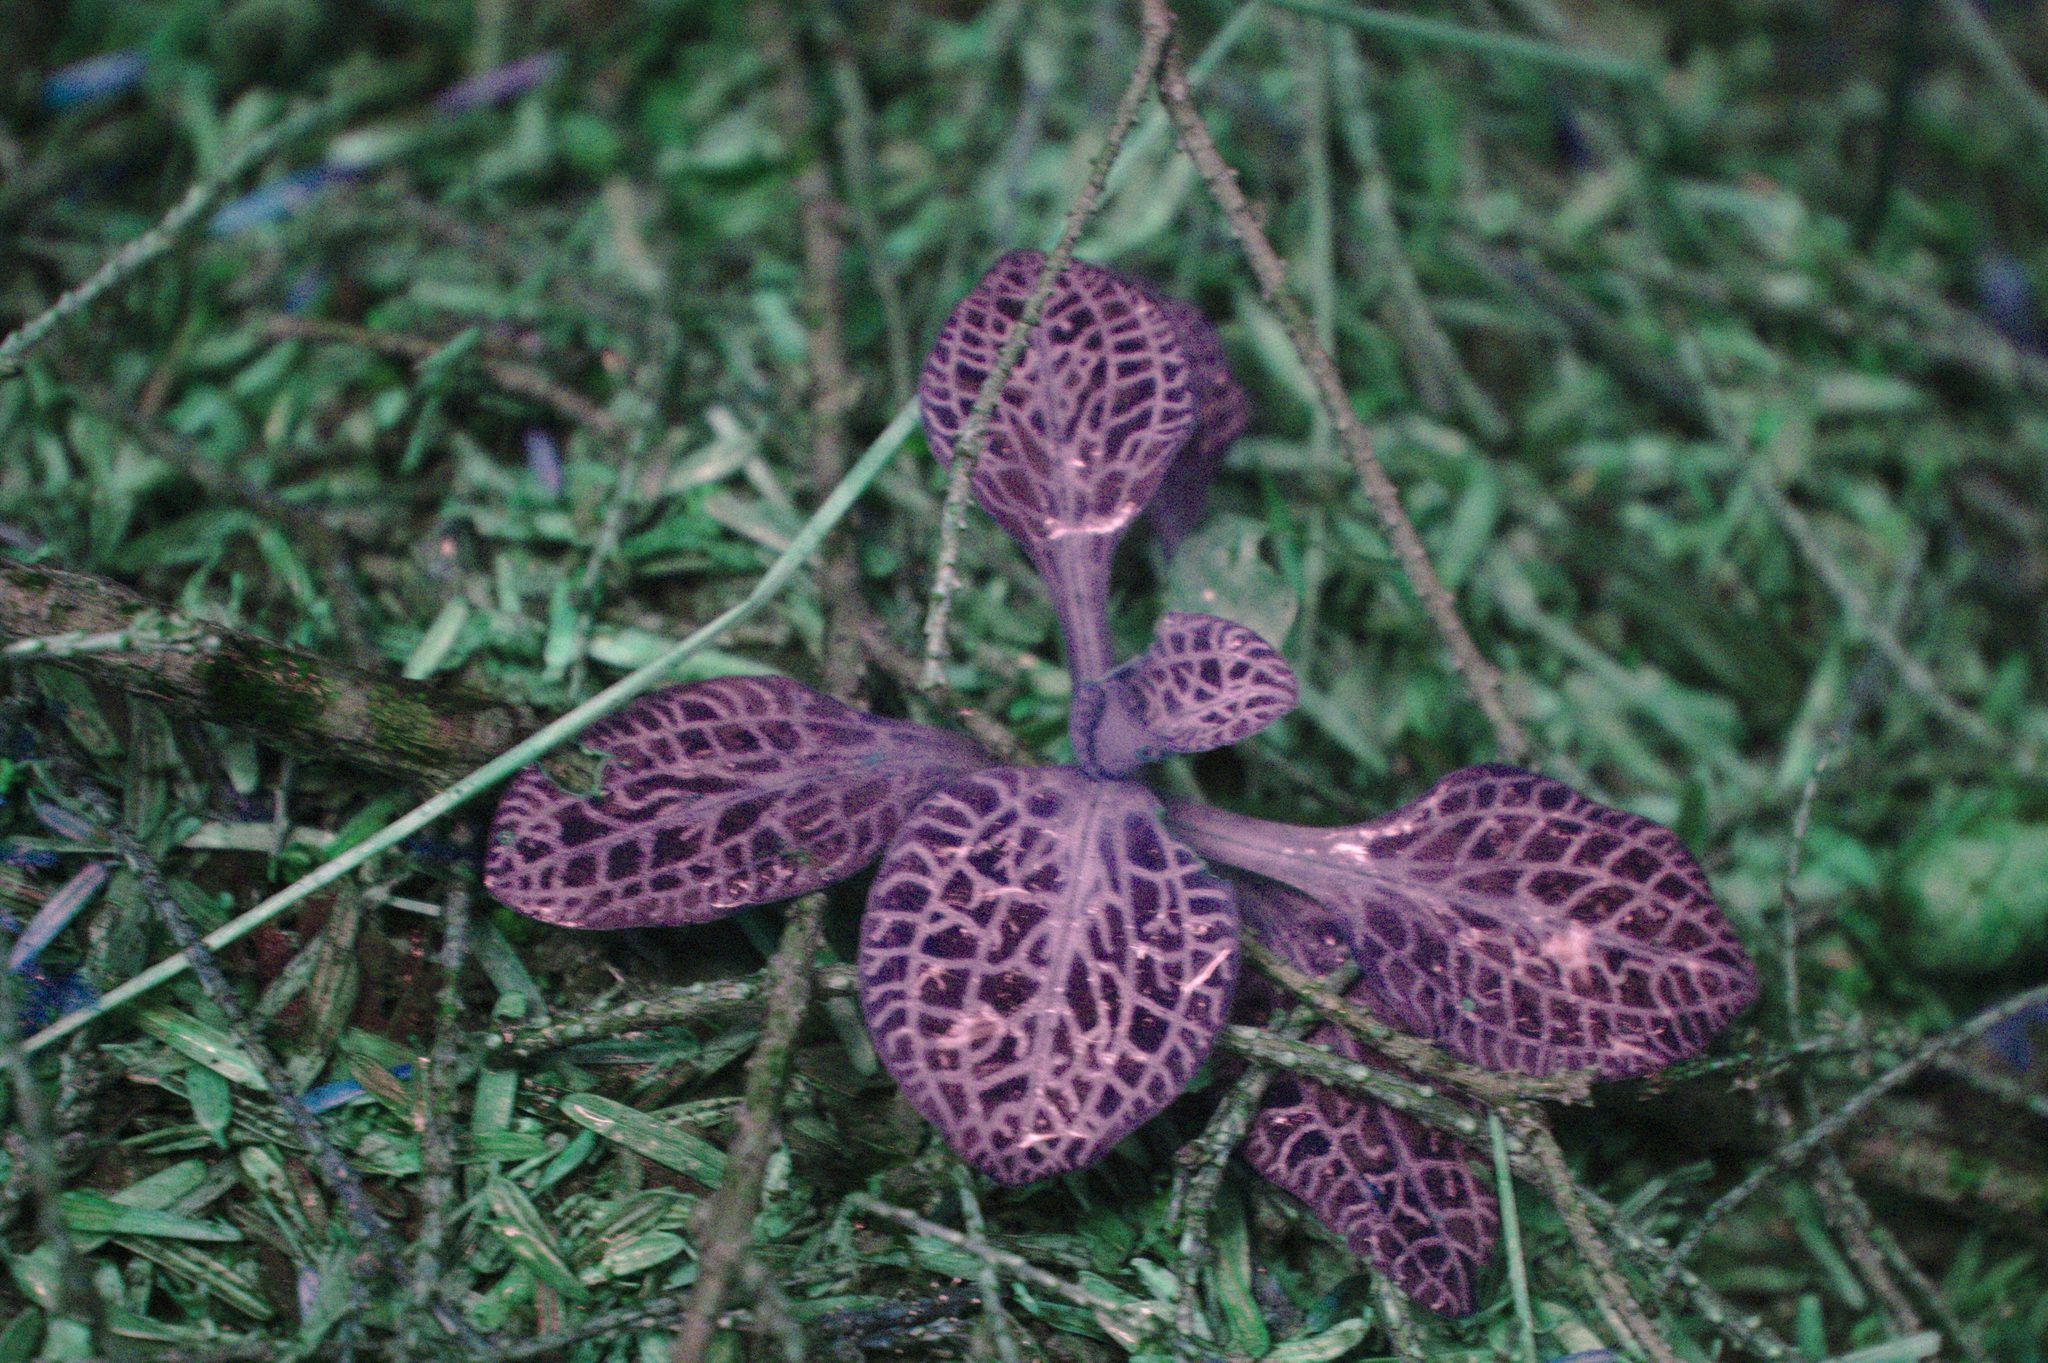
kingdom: Plantae
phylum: Tracheophyta
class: Liliopsida
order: Asparagales
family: Orchidaceae
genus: Goodyera
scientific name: Goodyera pubescens
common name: Downy rattlesnake-plantain
